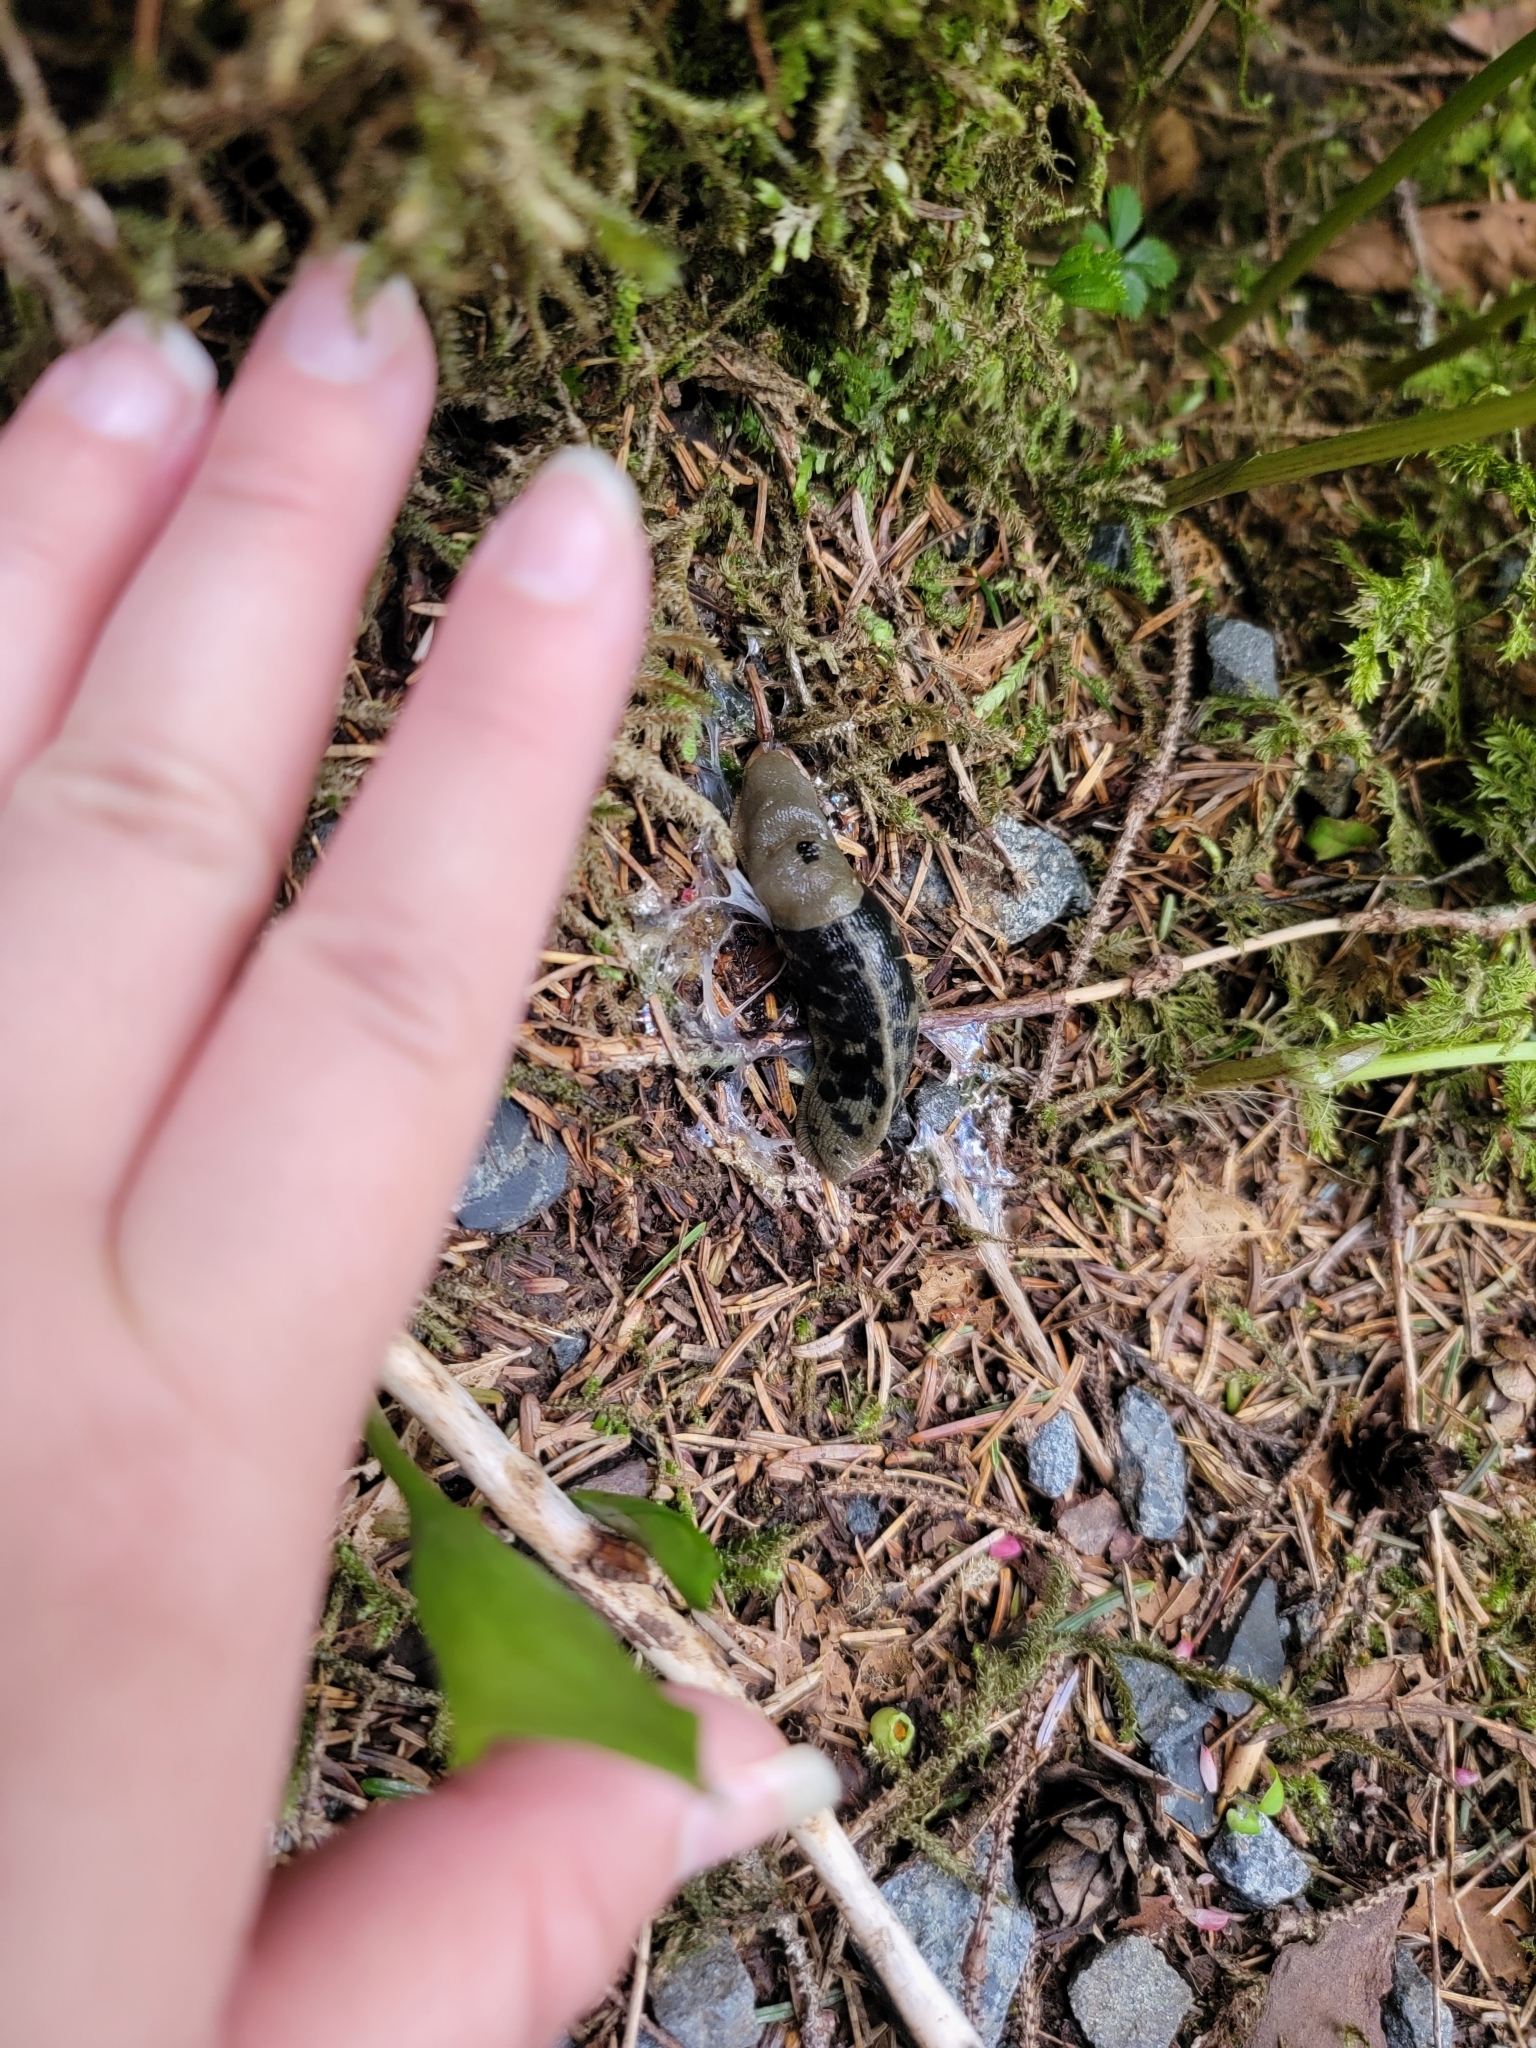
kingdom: Animalia
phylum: Mollusca
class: Gastropoda
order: Stylommatophora
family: Ariolimacidae
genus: Ariolimax
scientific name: Ariolimax columbianus
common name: Pacific banana slug
